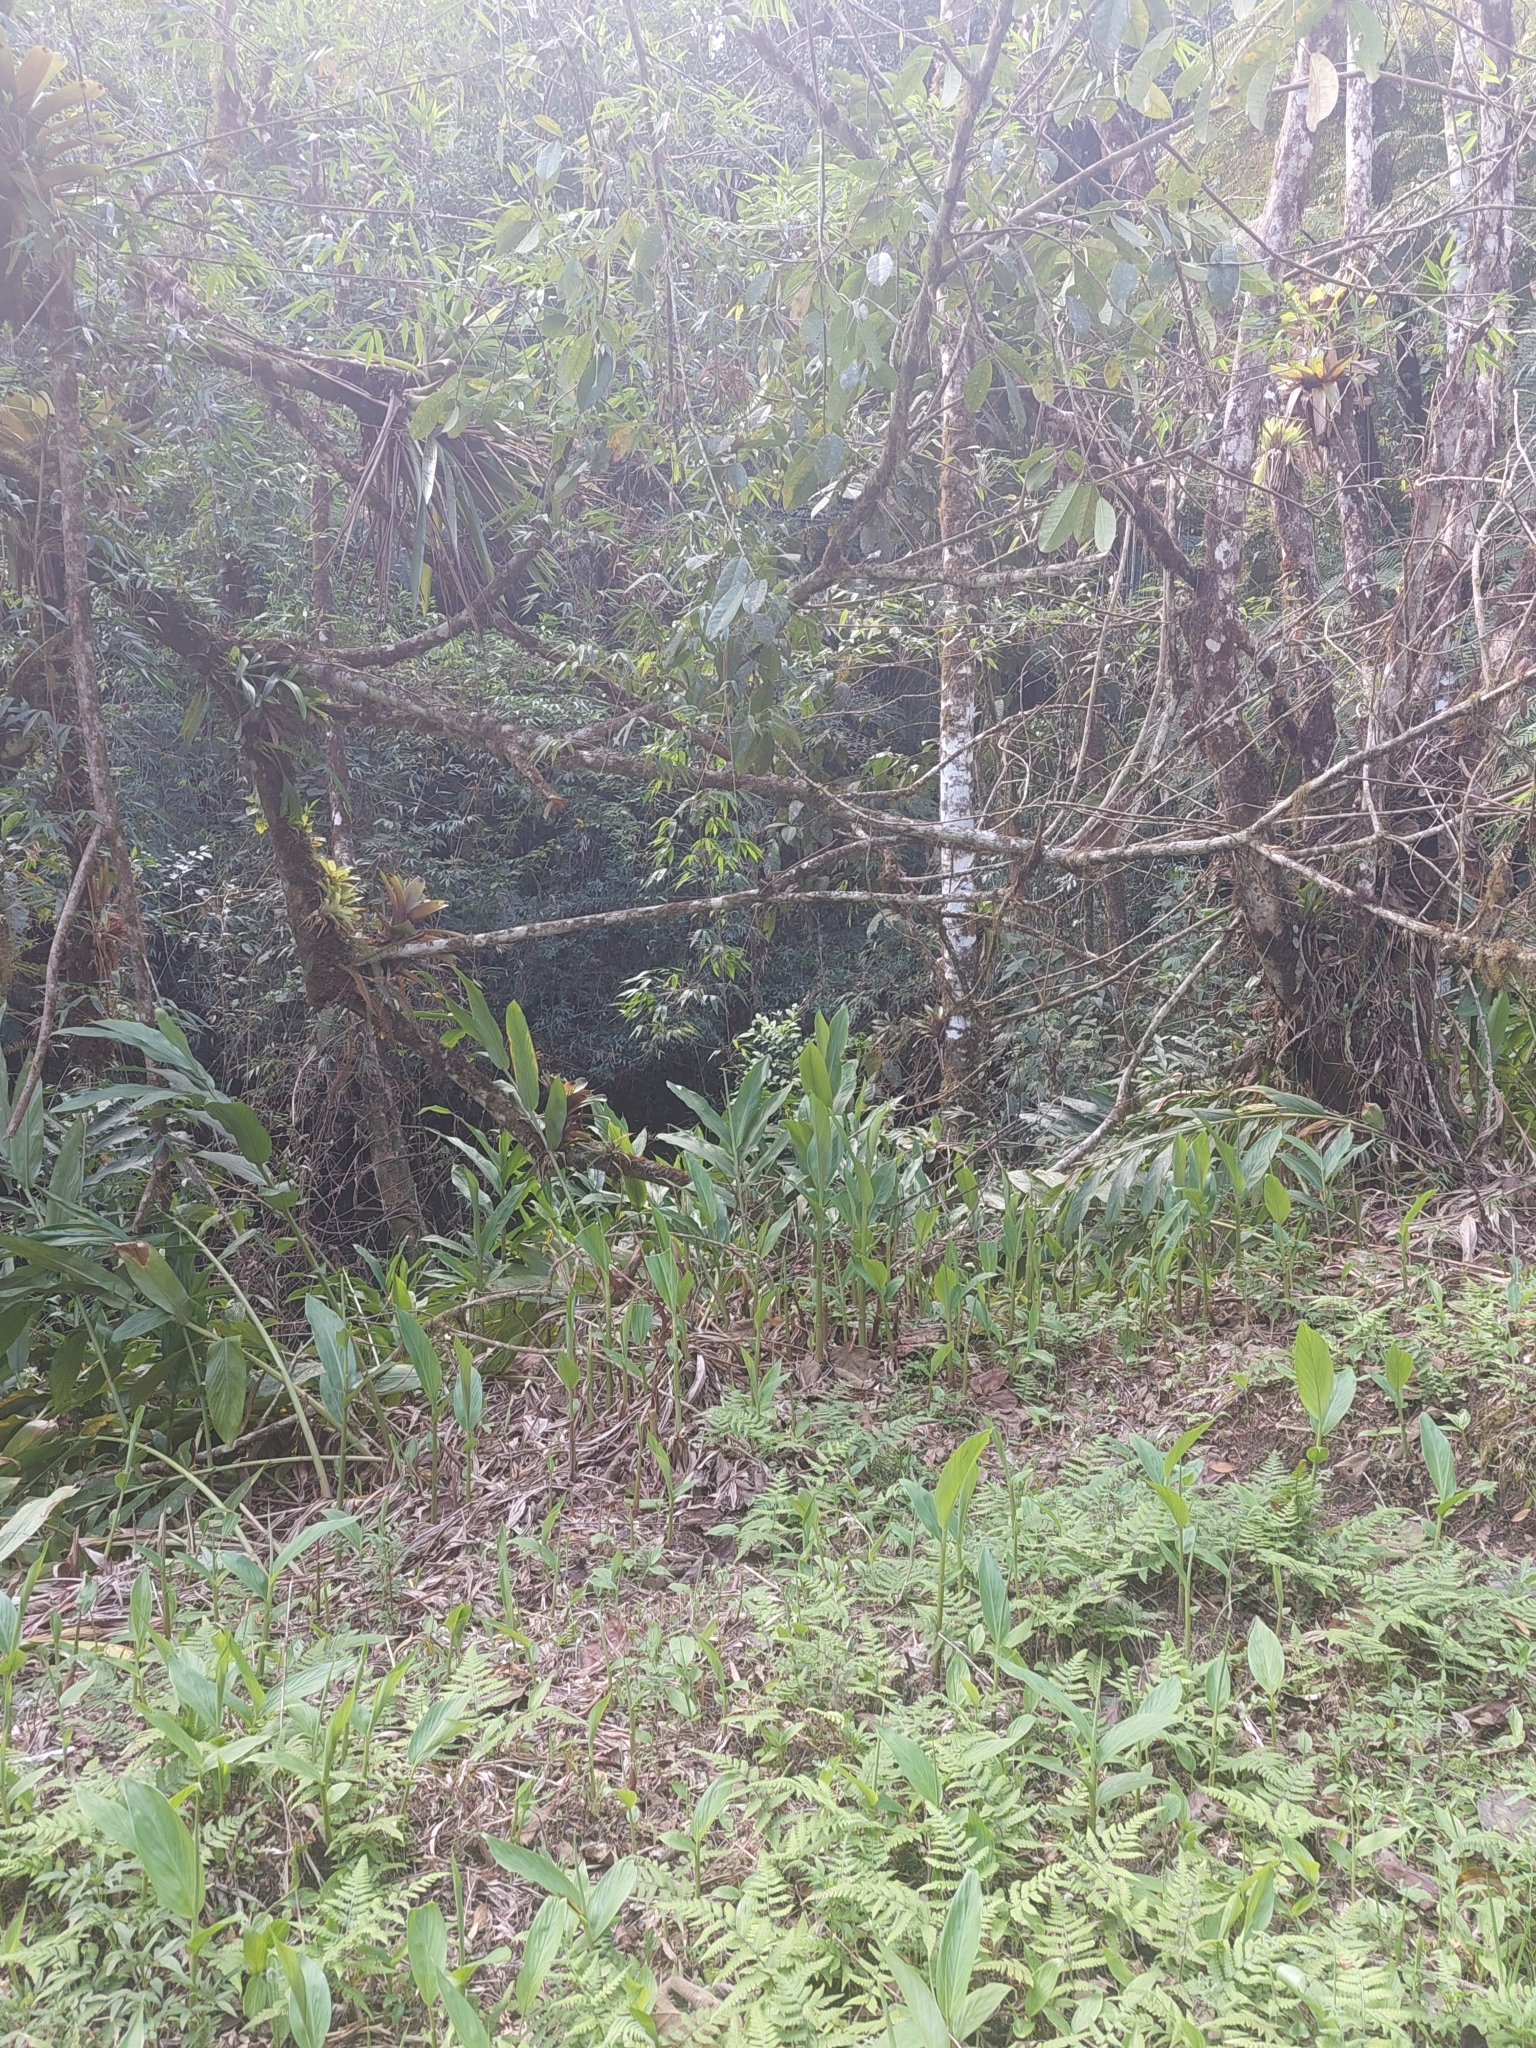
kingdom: Plantae
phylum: Tracheophyta
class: Liliopsida
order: Zingiberales
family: Zingiberaceae
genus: Hedychium
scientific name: Hedychium coronarium
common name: White garland-lily
